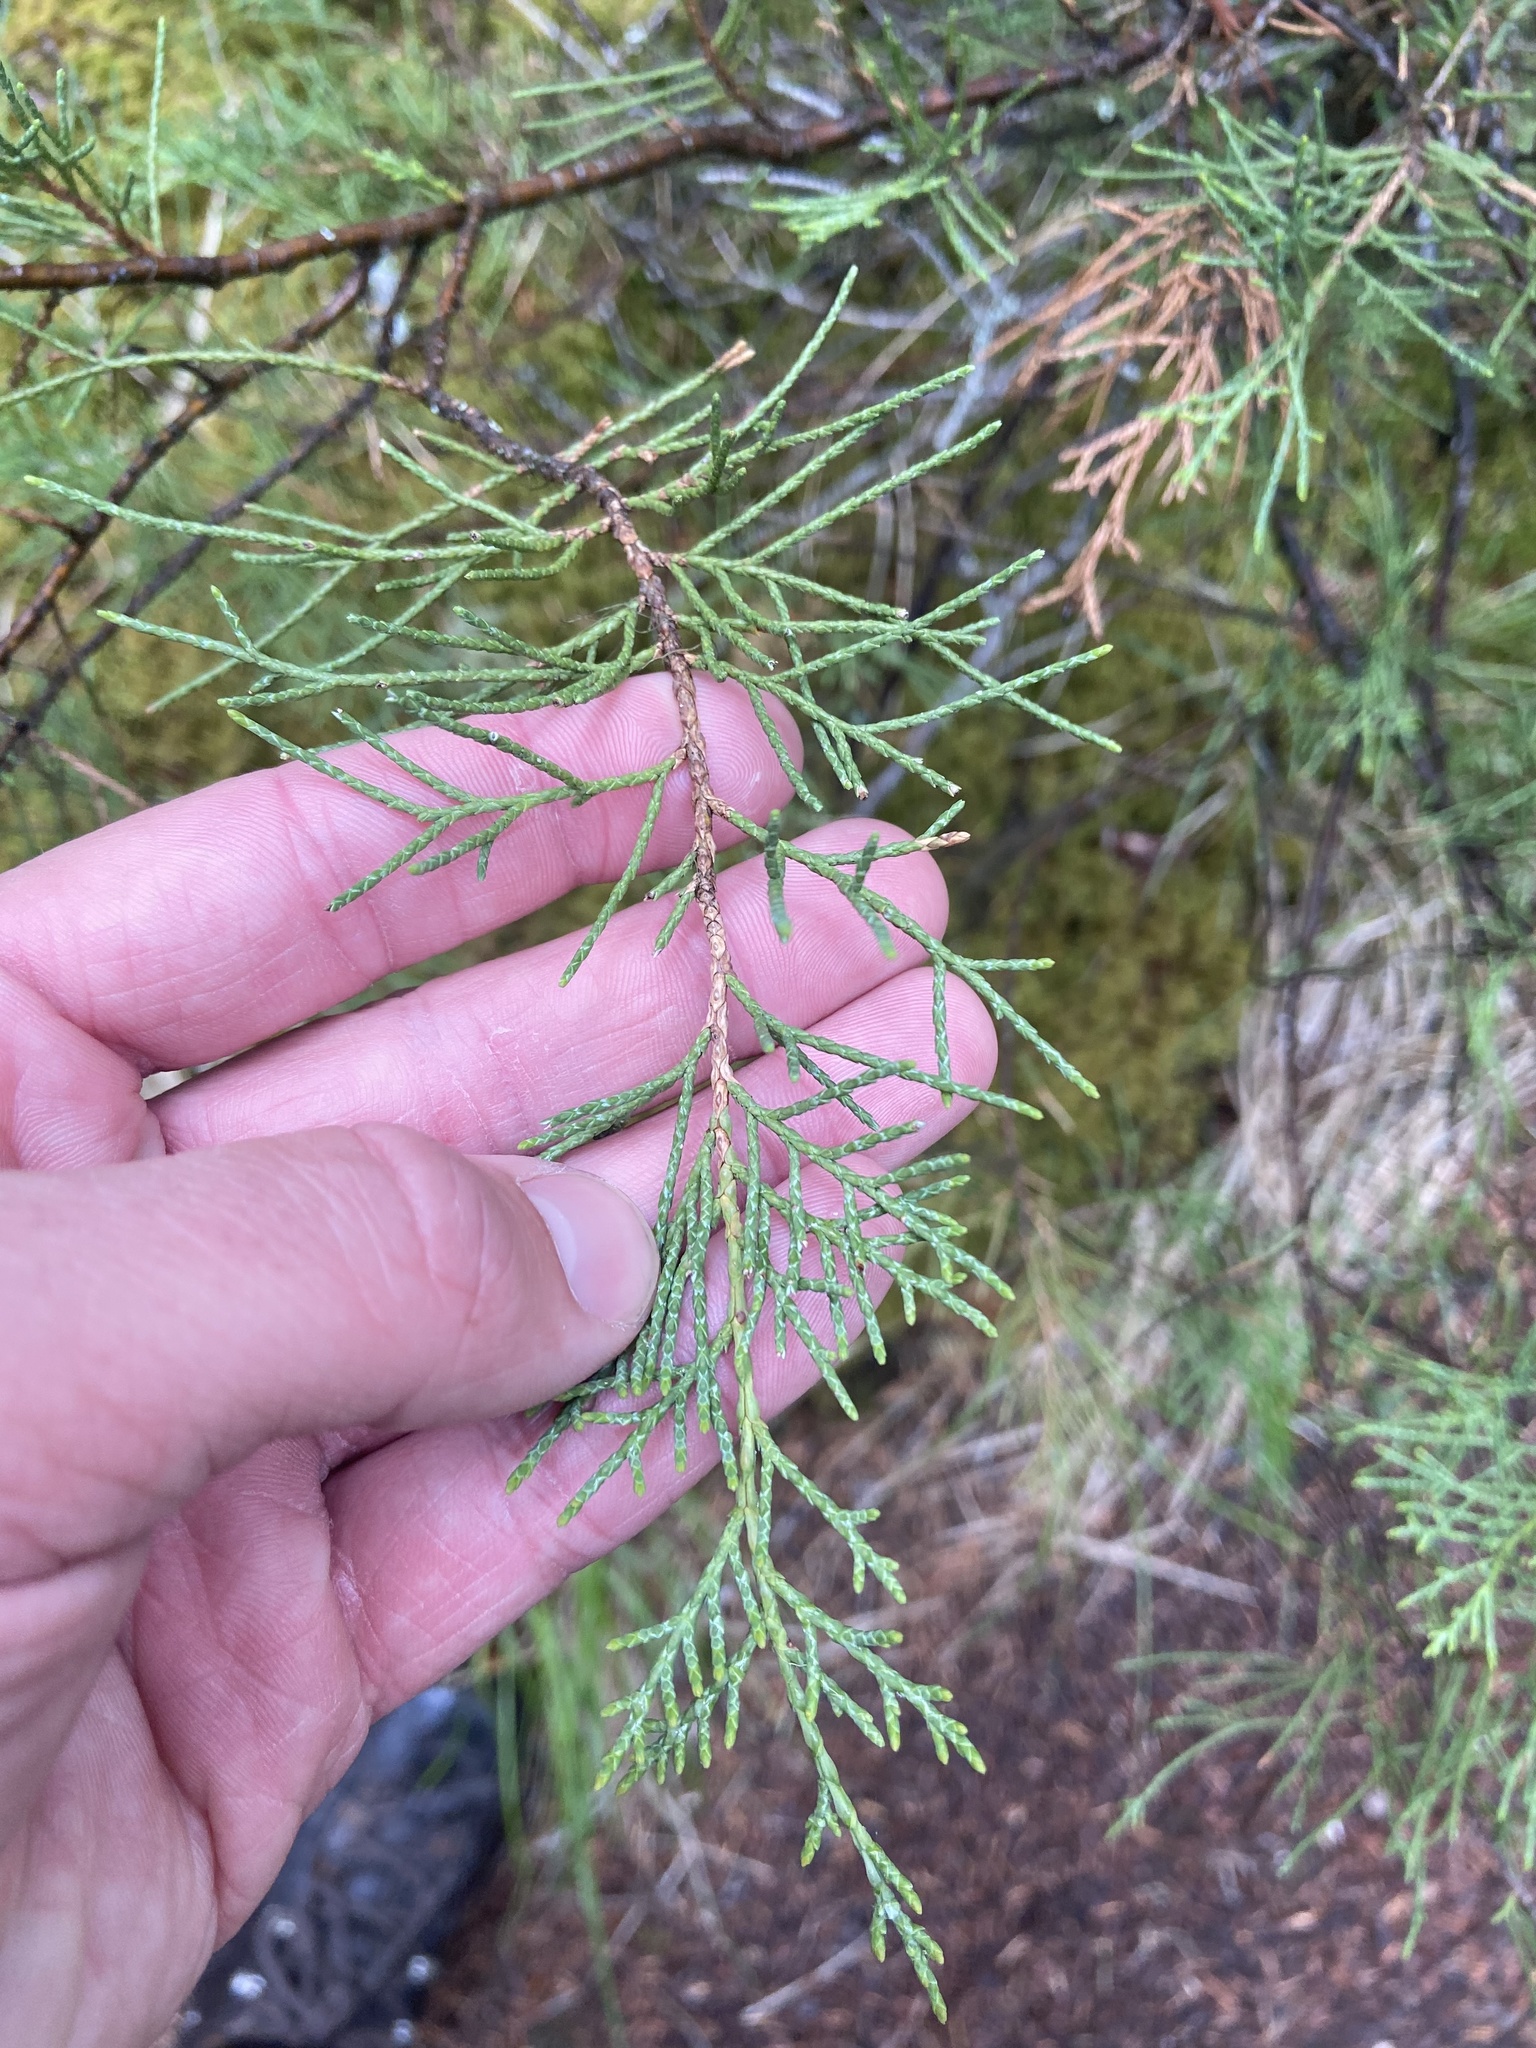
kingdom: Plantae
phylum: Tracheophyta
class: Pinopsida
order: Pinales
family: Cupressaceae
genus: Juniperus
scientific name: Juniperus scopulorum
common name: Rocky mountain juniper
